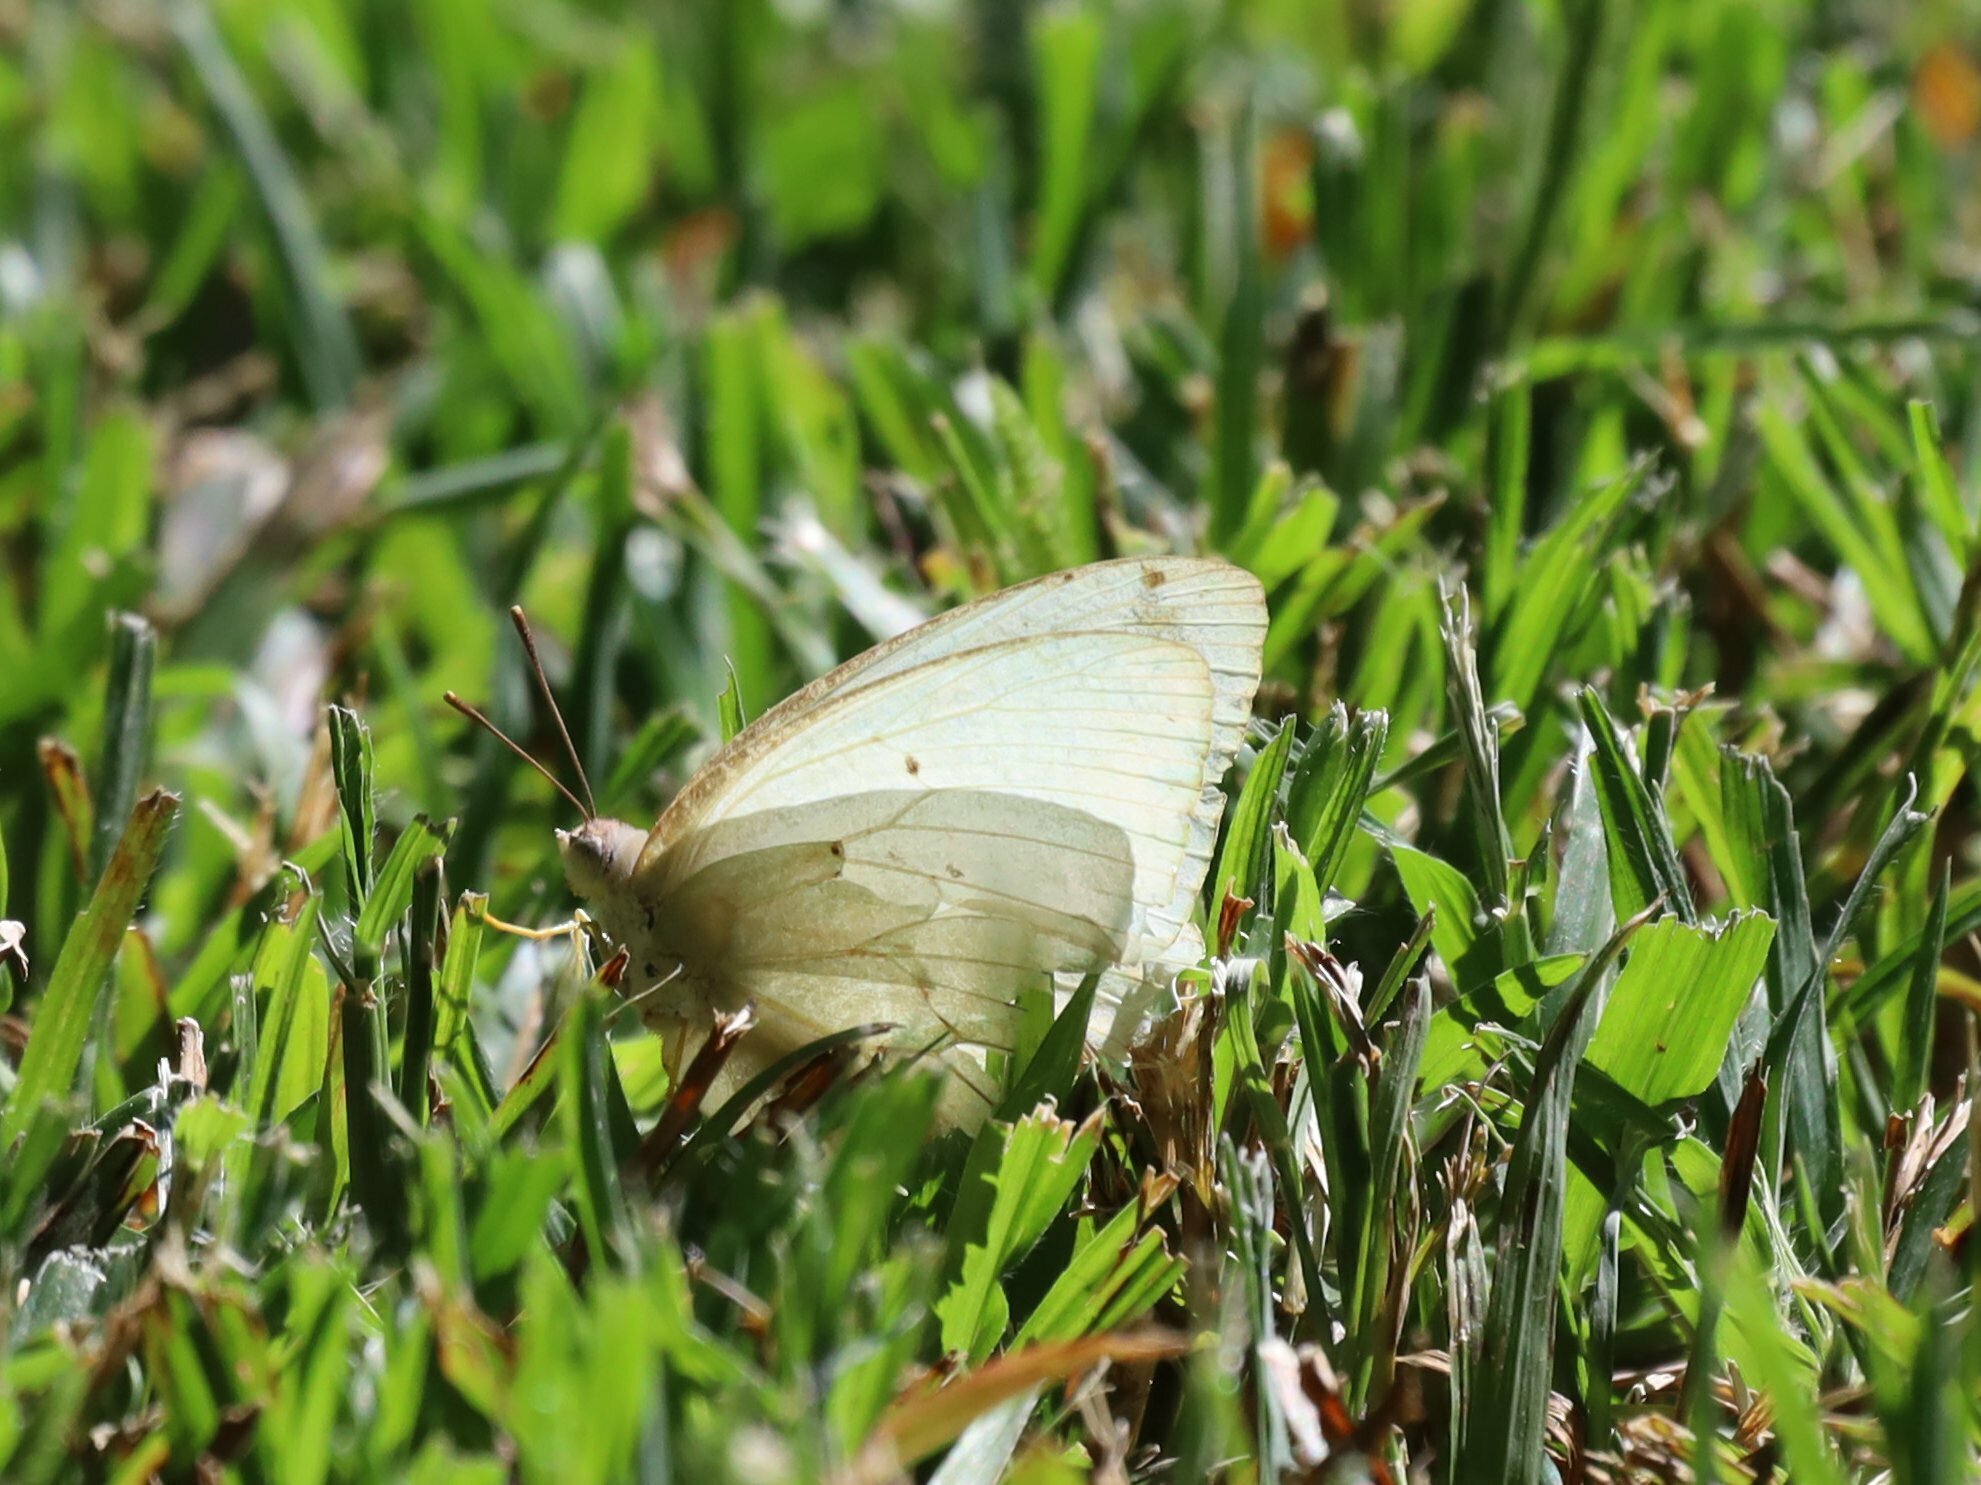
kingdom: Animalia
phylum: Arthropoda
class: Insecta
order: Lepidoptera
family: Pieridae
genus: Catopsilia
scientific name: Catopsilia florella
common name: African migrant
